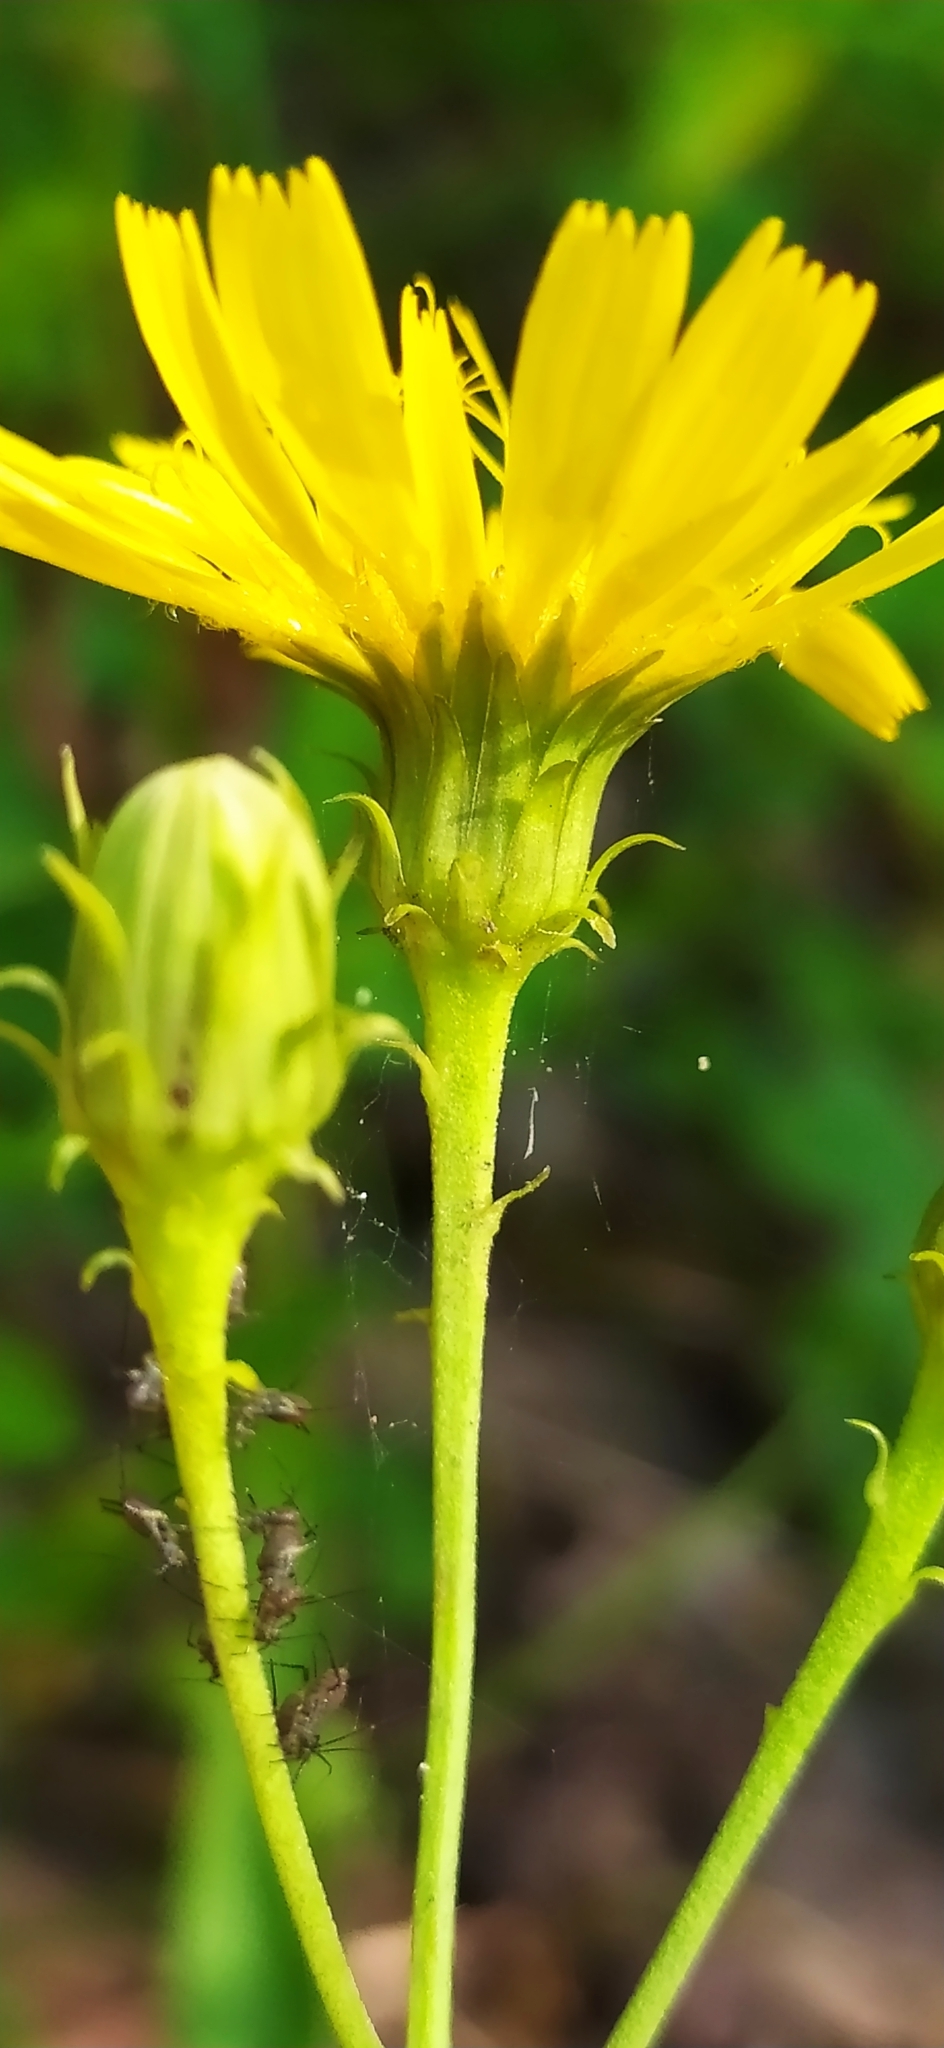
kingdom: Plantae
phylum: Tracheophyta
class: Magnoliopsida
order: Asterales
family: Asteraceae
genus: Hieracium
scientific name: Hieracium umbellatum
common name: Northern hawkweed
